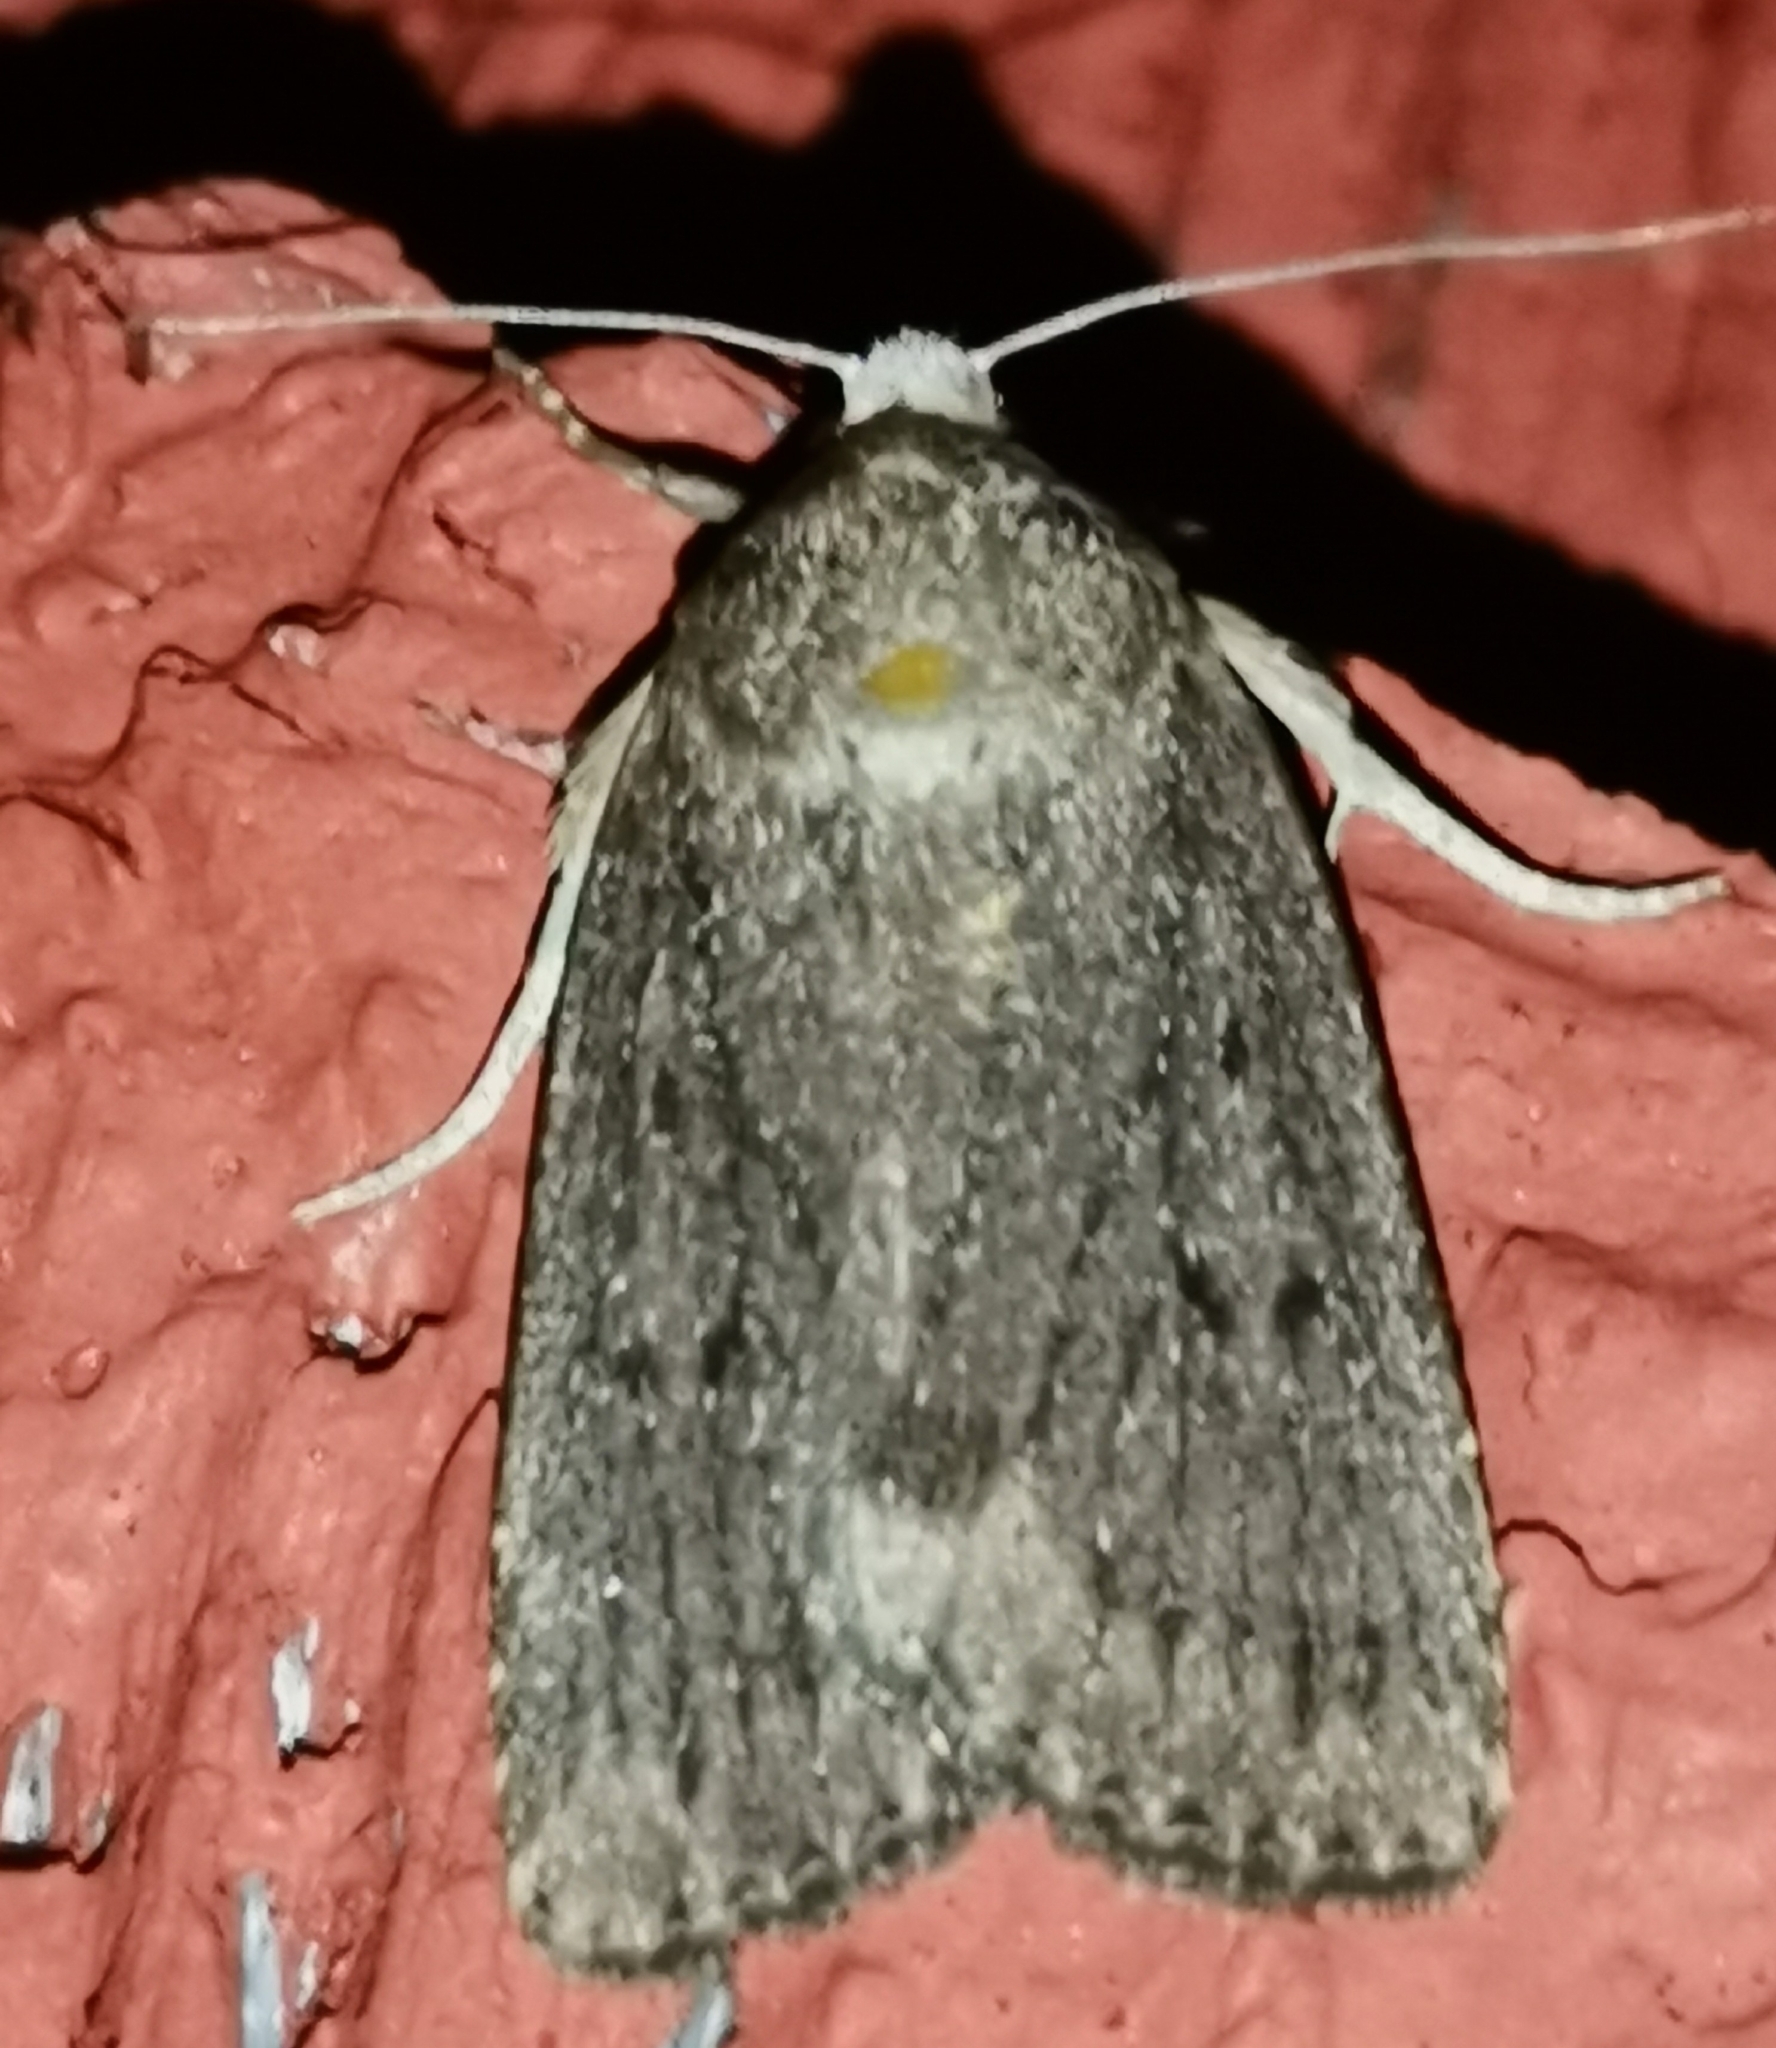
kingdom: Animalia
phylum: Arthropoda
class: Insecta
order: Lepidoptera
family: Noctuidae
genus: Amphipyra
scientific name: Amphipyra tragopoginis
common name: Mouse moth
